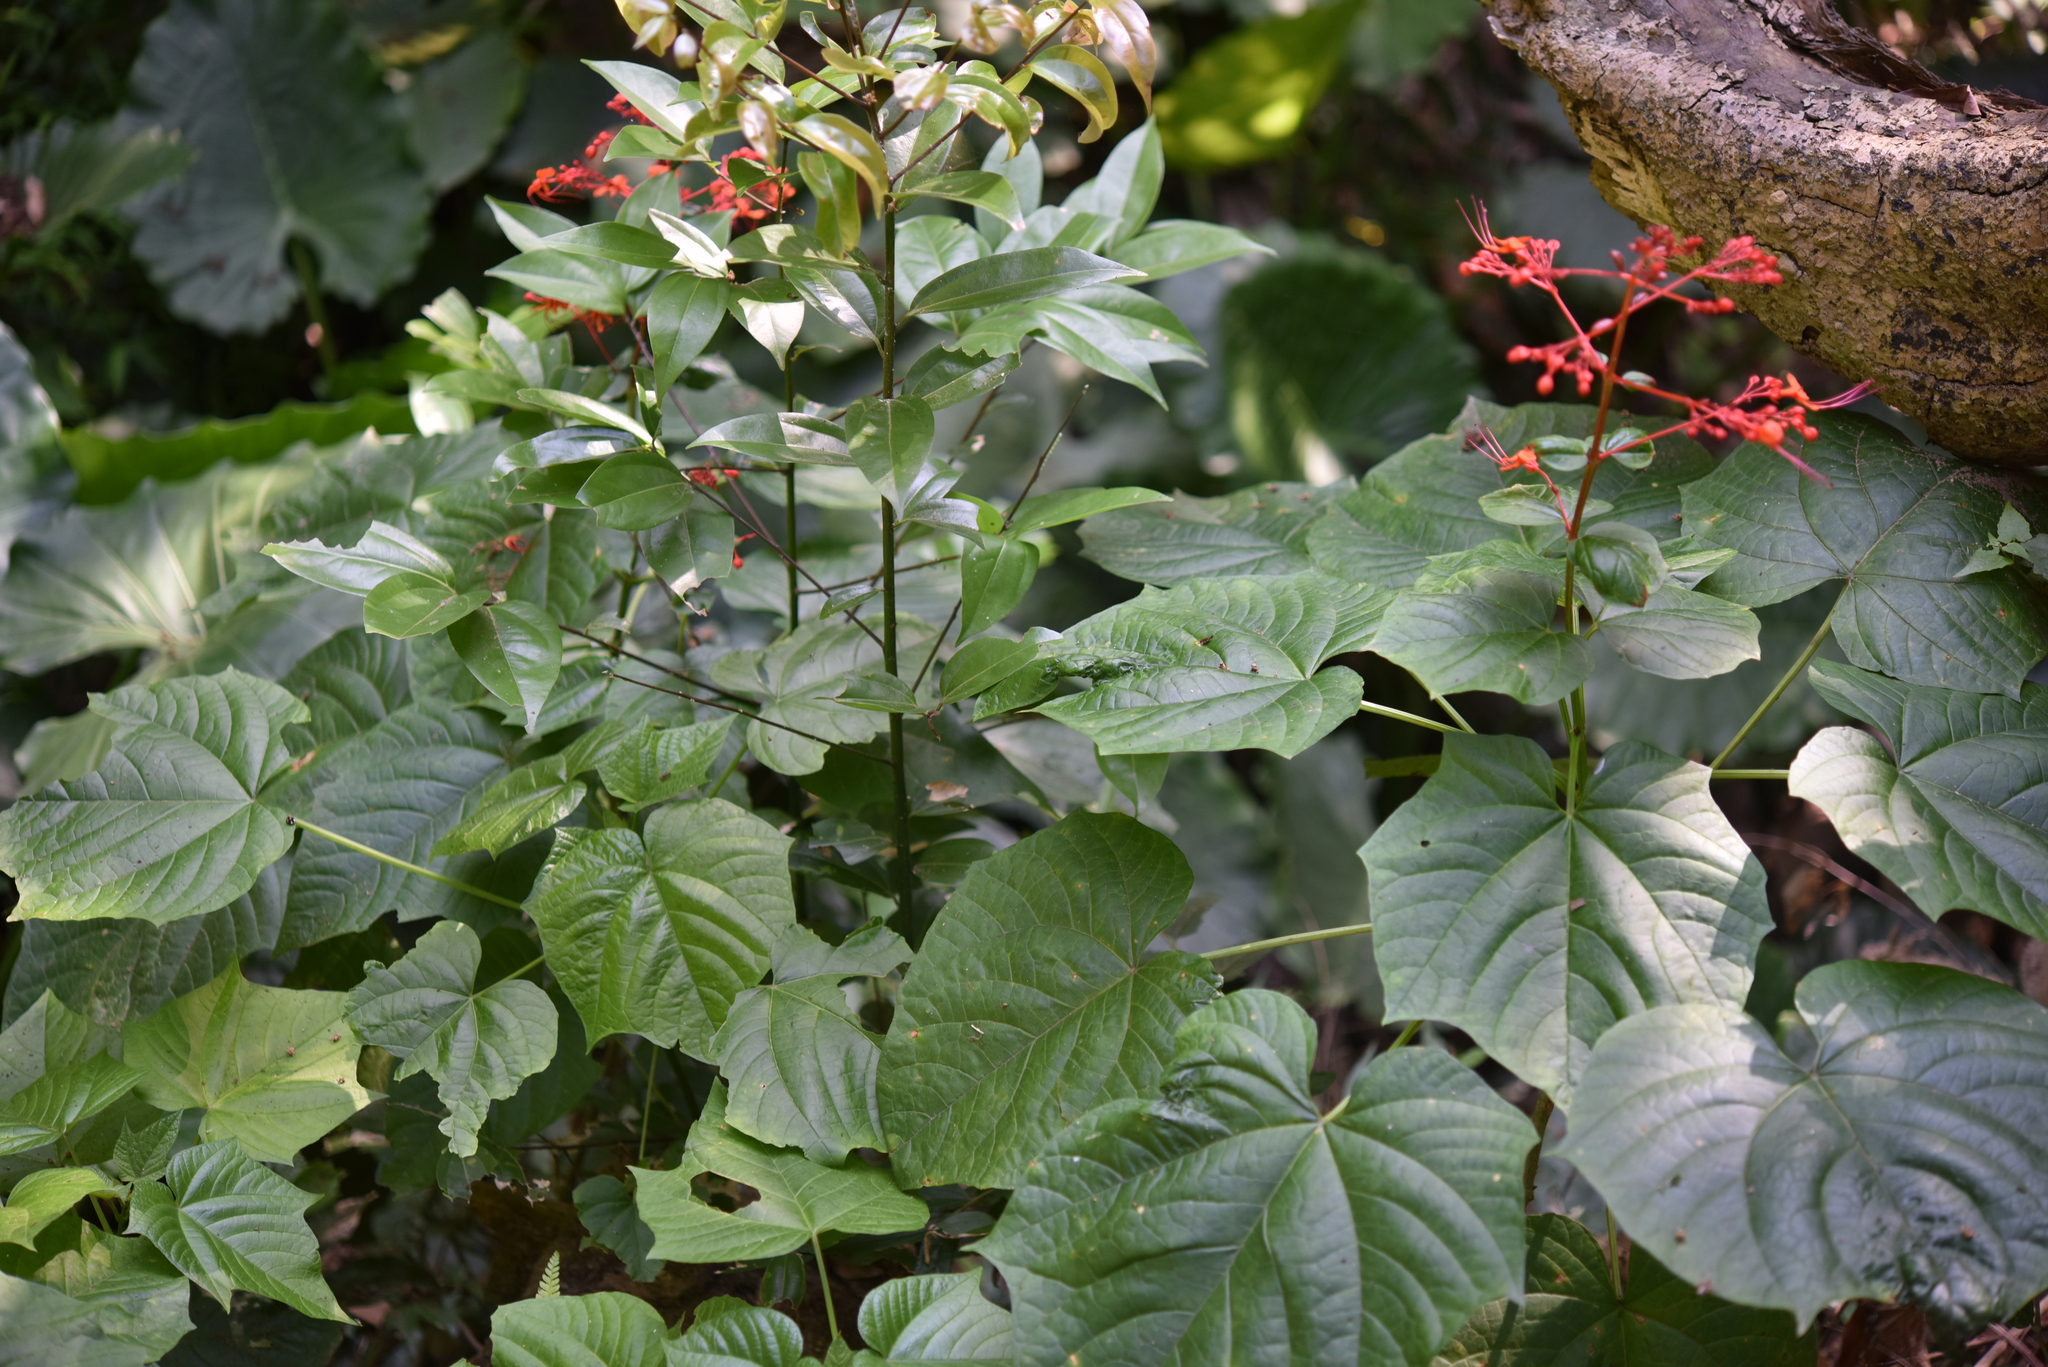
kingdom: Plantae
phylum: Tracheophyta
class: Magnoliopsida
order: Lamiales
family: Lamiaceae
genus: Clerodendrum
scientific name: Clerodendrum japonicum
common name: Japanese glorybower
